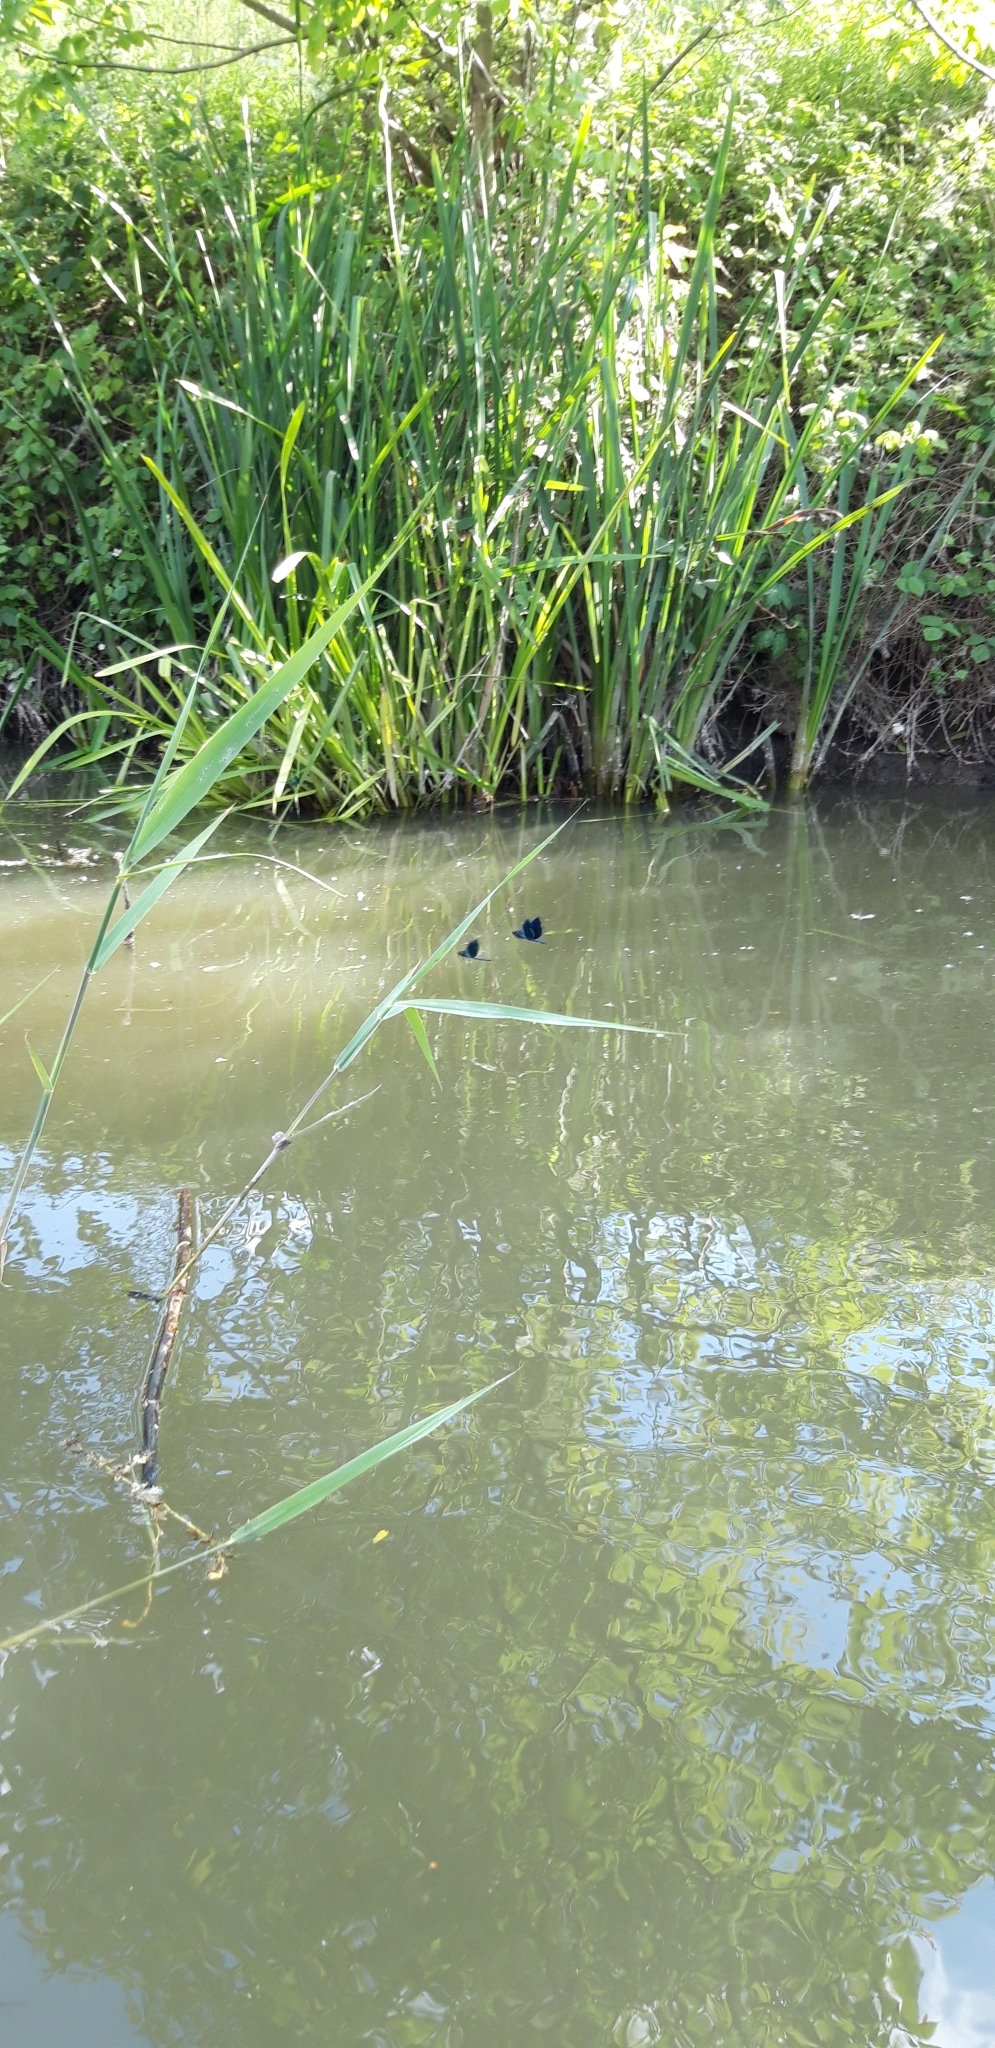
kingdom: Animalia
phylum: Arthropoda
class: Insecta
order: Odonata
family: Calopterygidae
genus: Calopteryx
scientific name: Calopteryx splendens
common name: Banded demoiselle
